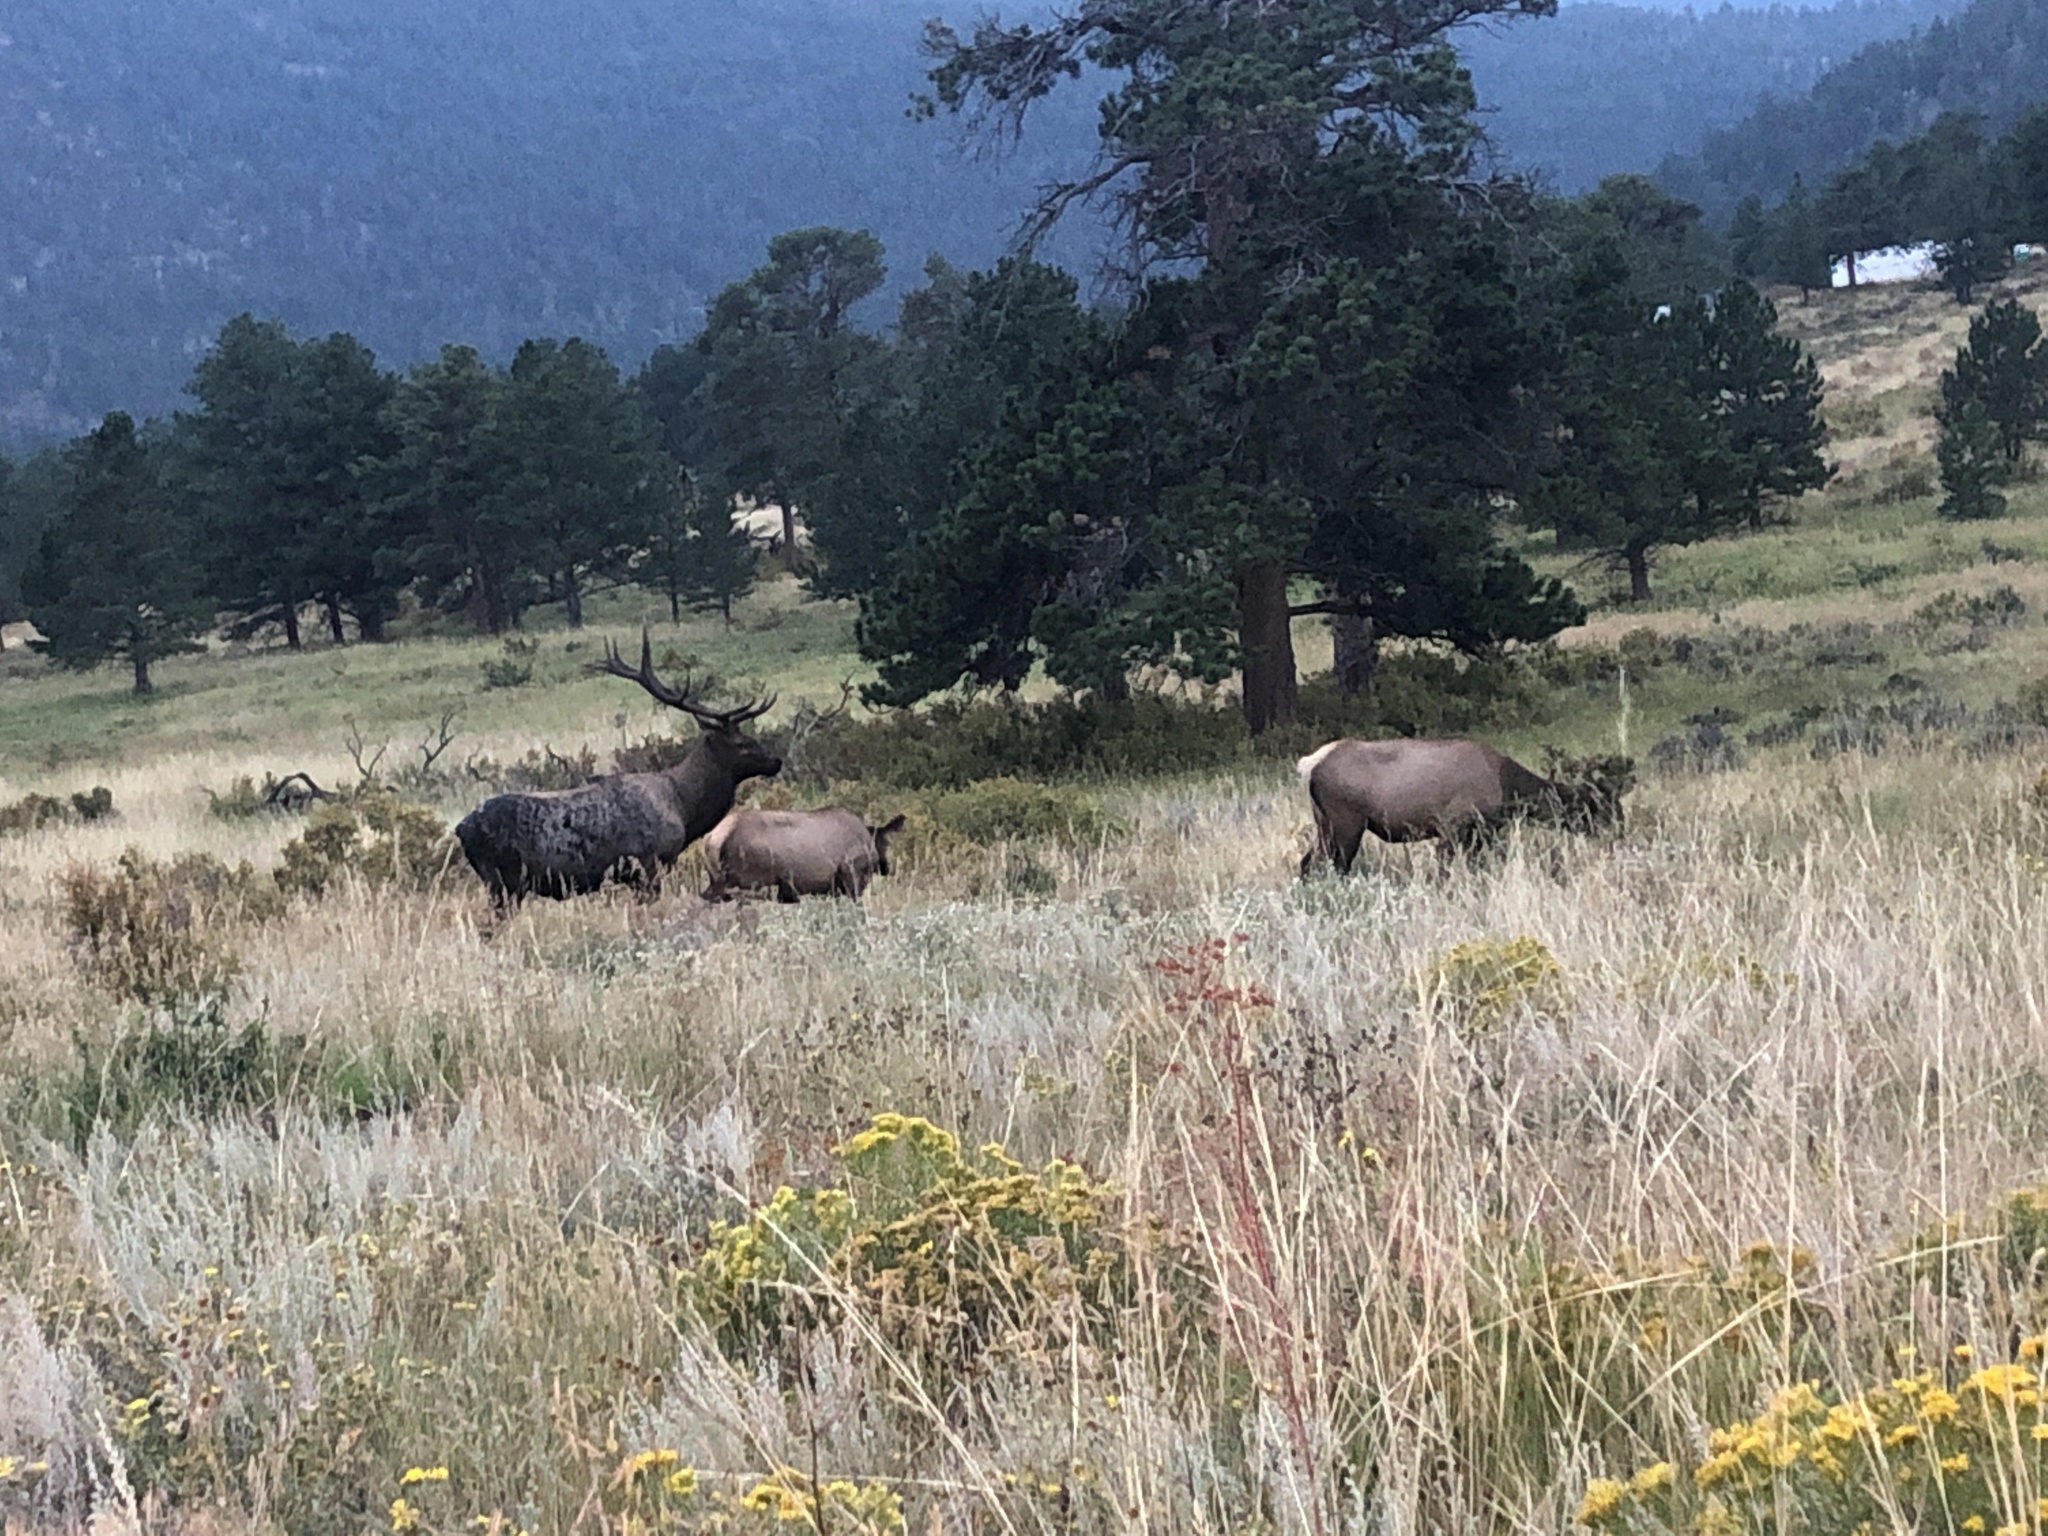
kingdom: Animalia
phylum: Chordata
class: Mammalia
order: Artiodactyla
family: Cervidae
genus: Cervus
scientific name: Cervus elaphus
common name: Red deer
